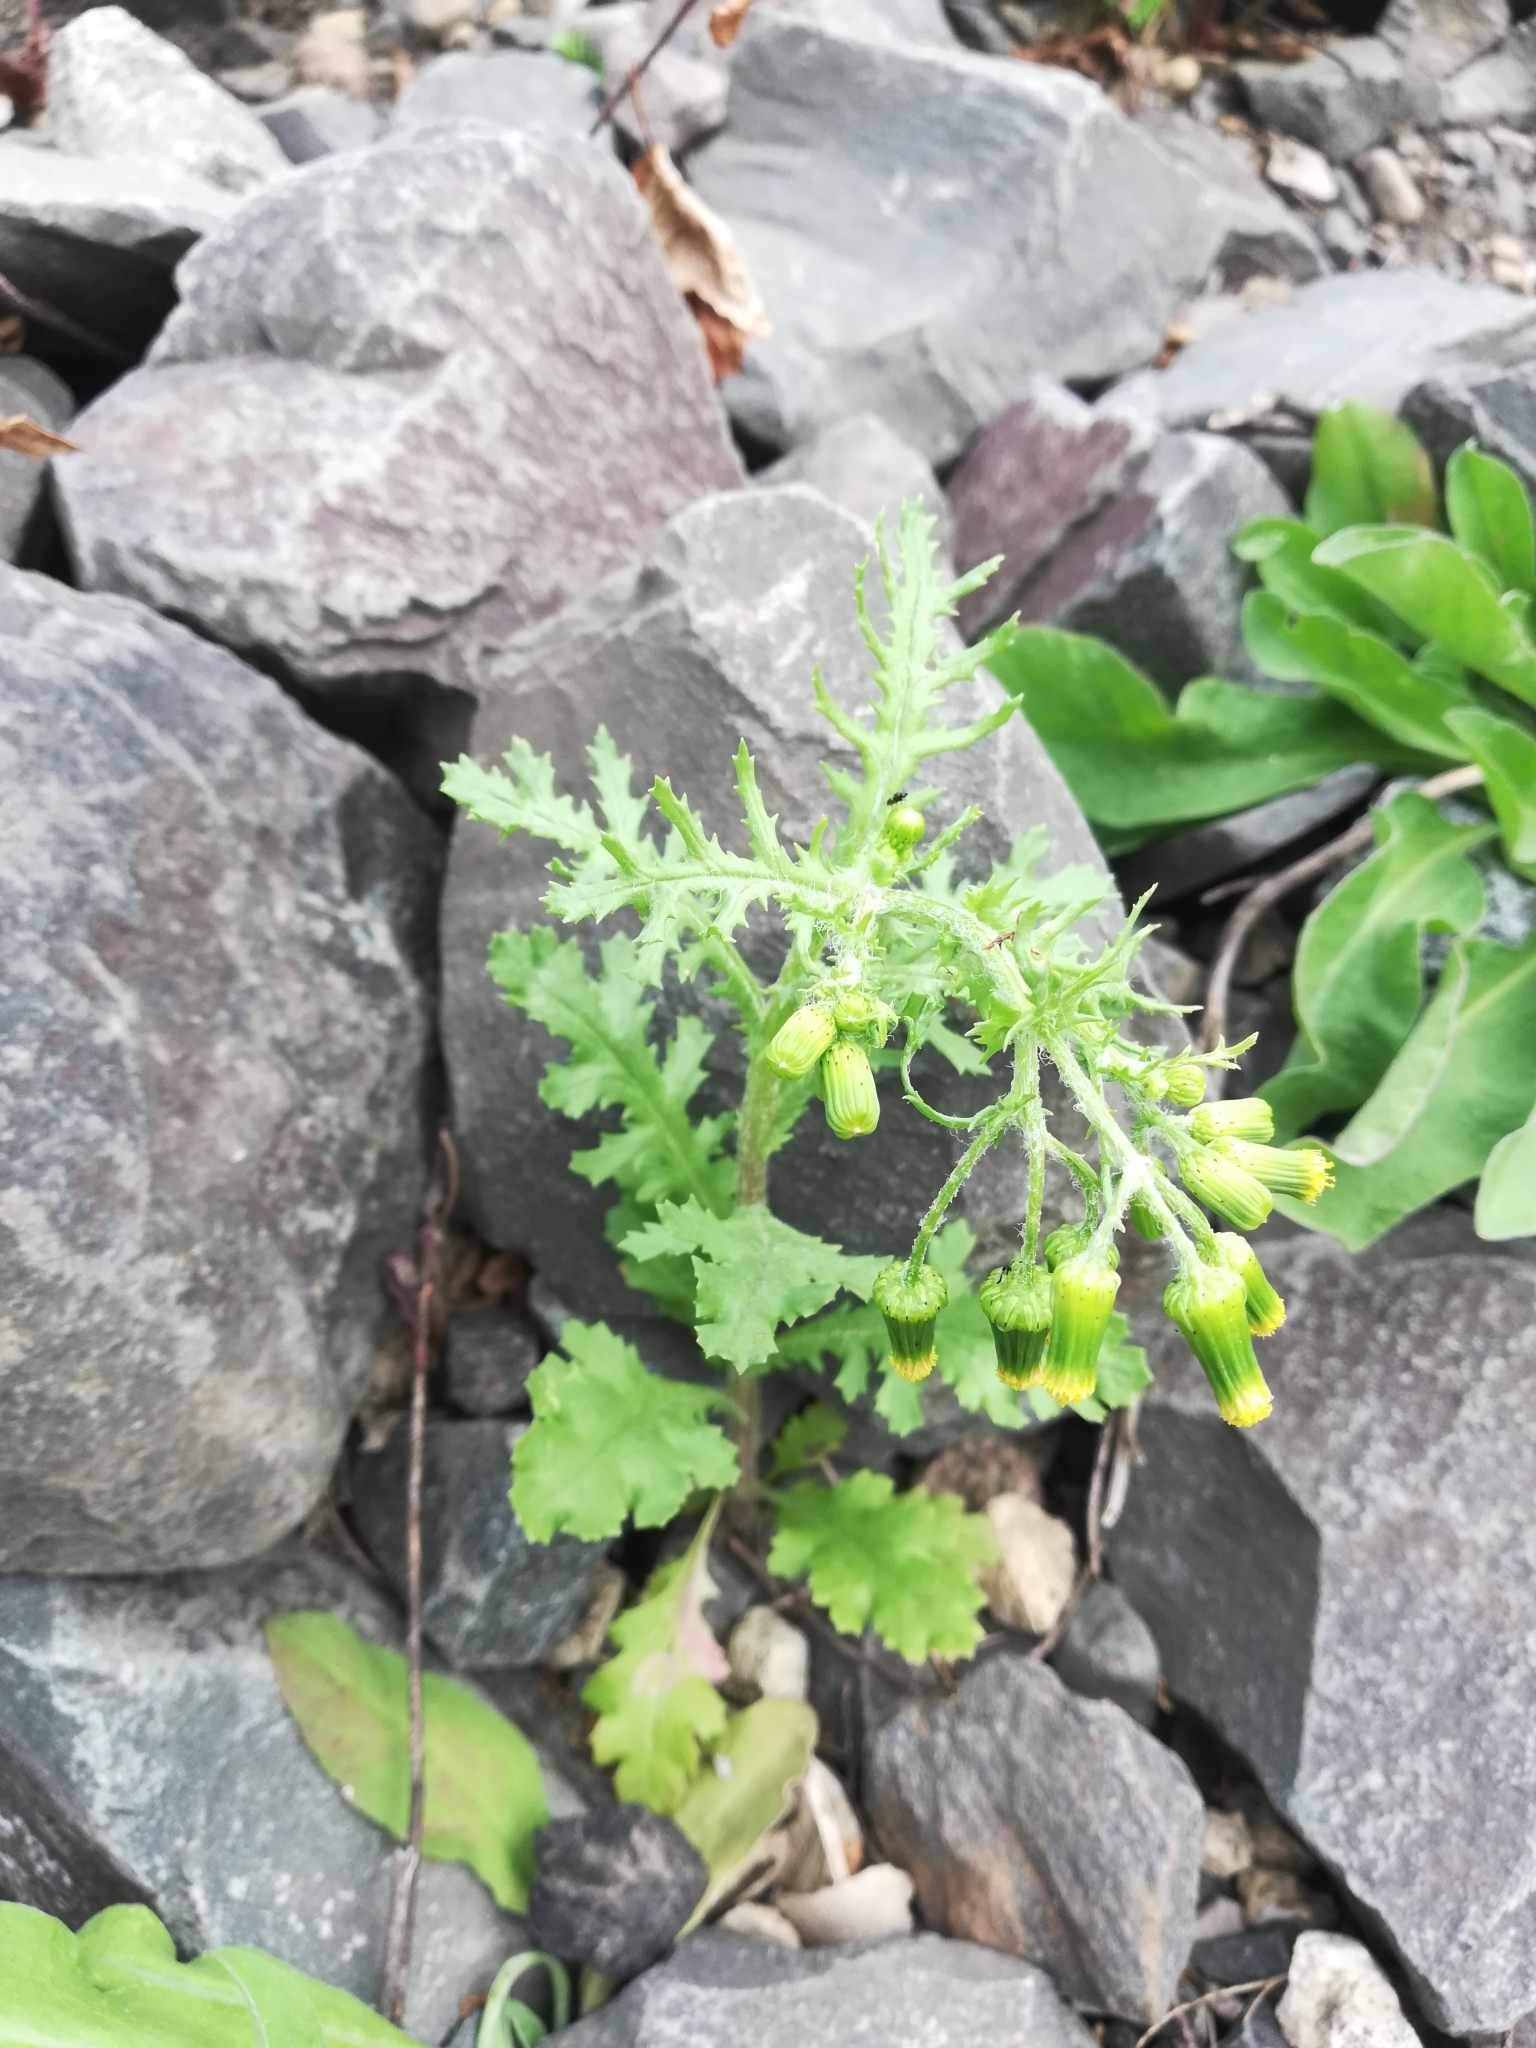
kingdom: Plantae
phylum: Tracheophyta
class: Magnoliopsida
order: Asterales
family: Asteraceae
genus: Senecio
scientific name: Senecio vulgaris
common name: Old-man-in-the-spring
